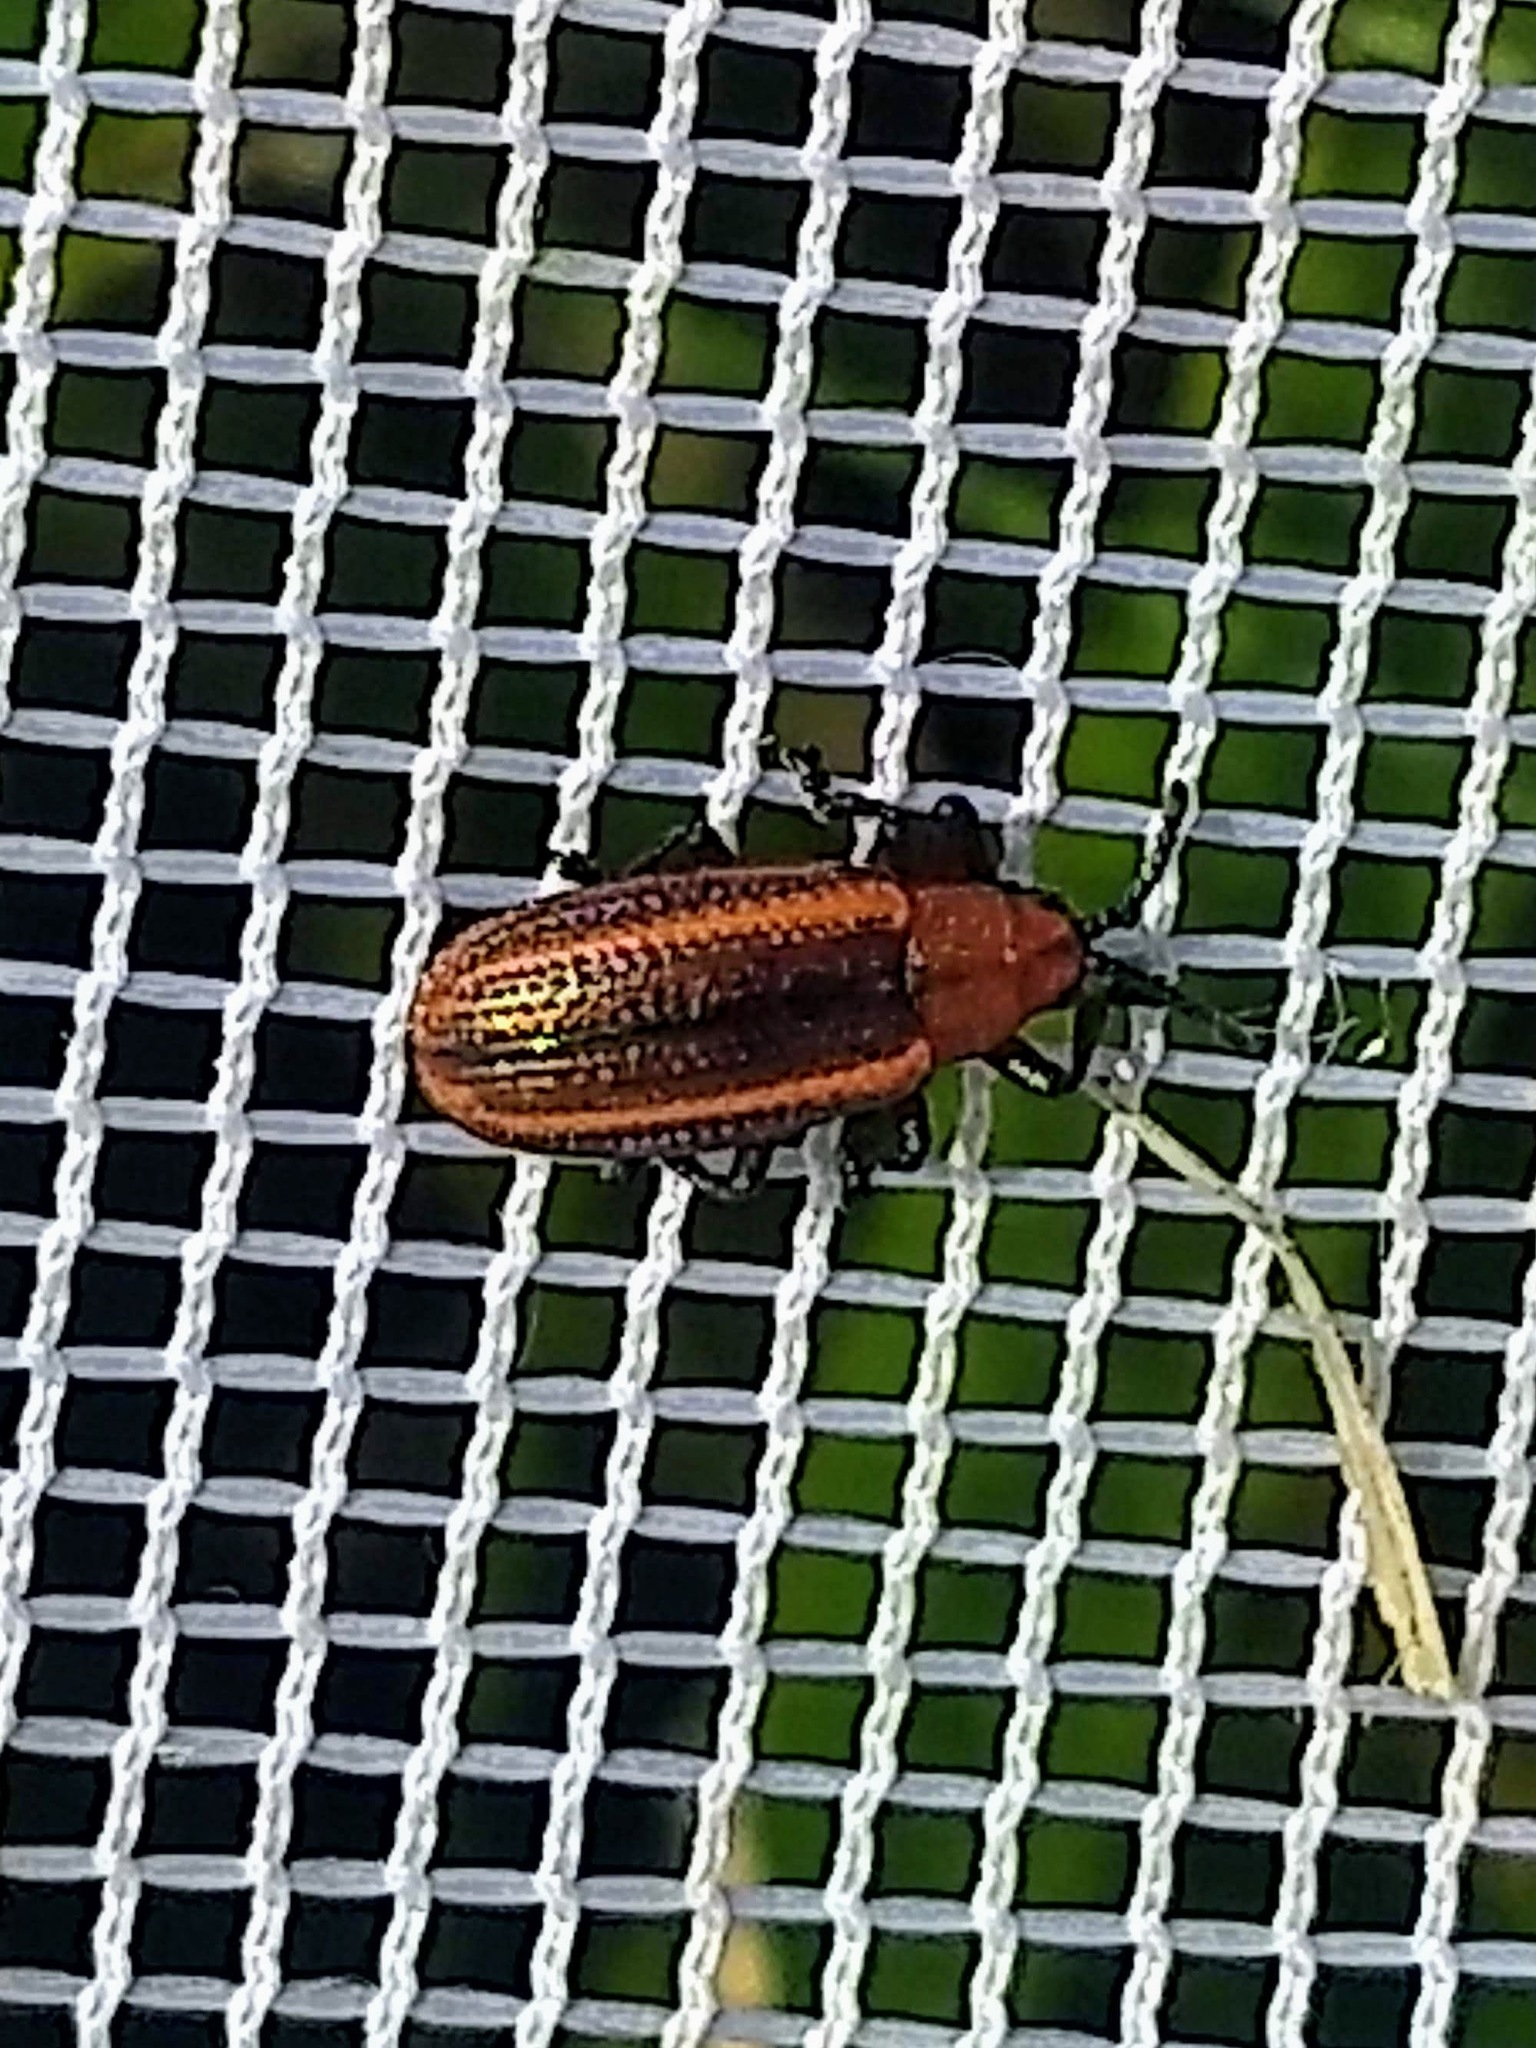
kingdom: Animalia
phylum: Arthropoda
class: Insecta
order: Coleoptera
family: Chrysomelidae
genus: Microrhopala
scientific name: Microrhopala vittata
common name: Goldenrod leaf miner beetle
